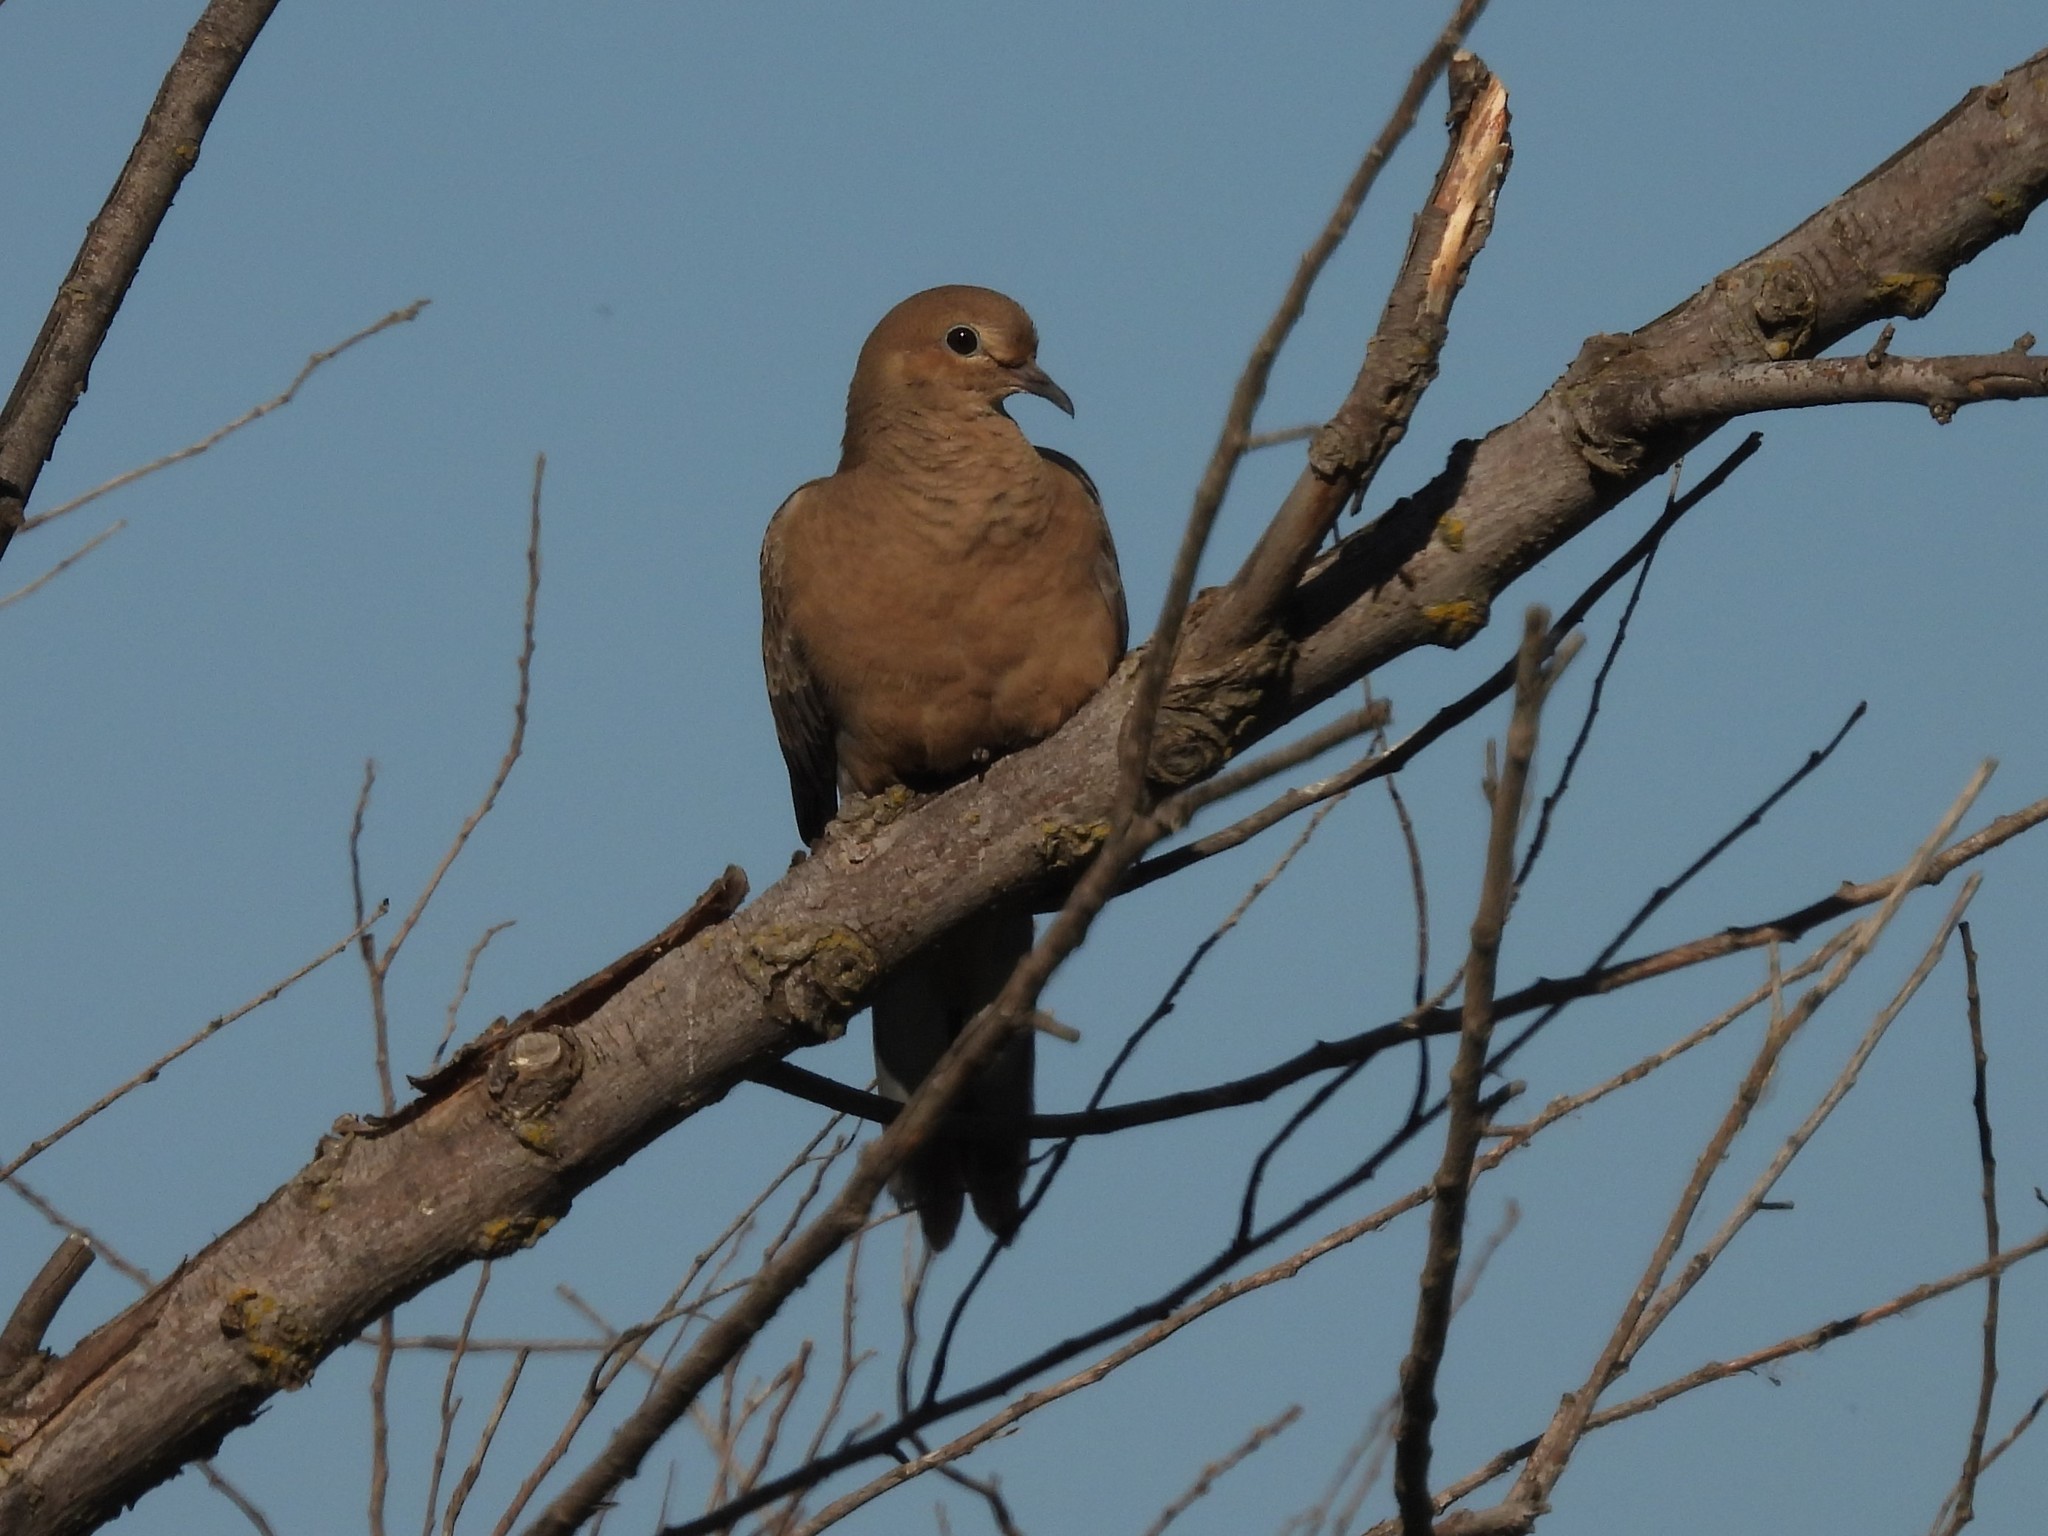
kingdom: Animalia
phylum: Chordata
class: Aves
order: Columbiformes
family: Columbidae
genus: Zenaida
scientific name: Zenaida macroura
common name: Mourning dove
